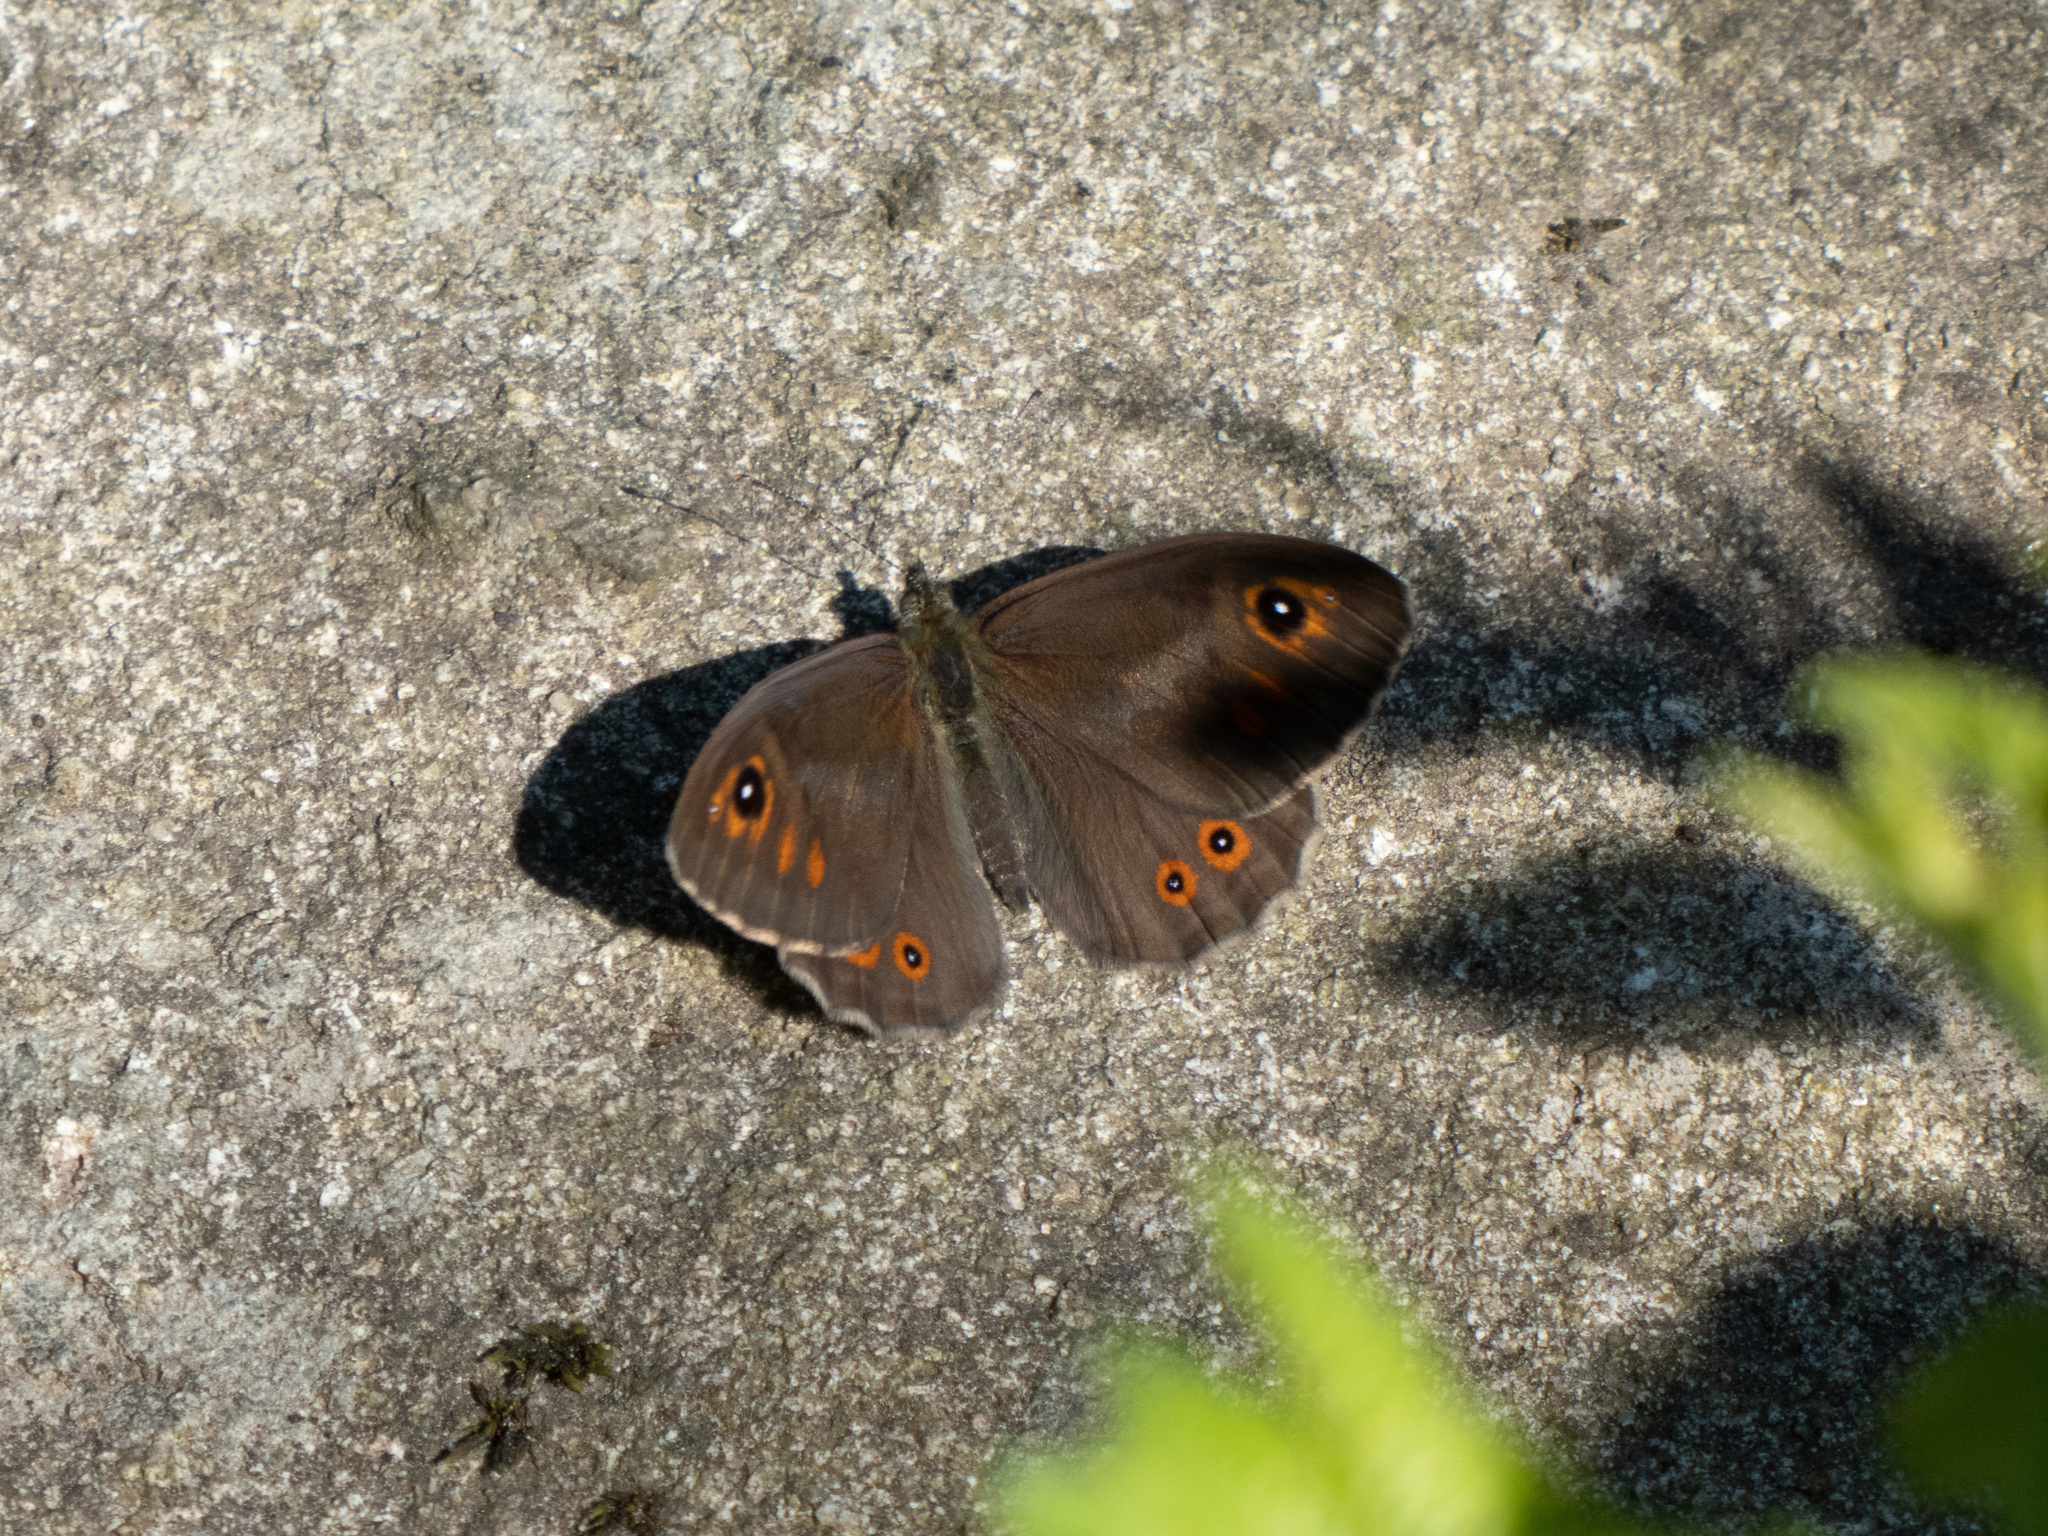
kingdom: Animalia
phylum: Arthropoda
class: Insecta
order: Lepidoptera
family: Nymphalidae
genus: Pararge
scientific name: Pararge Lasiommata maera
